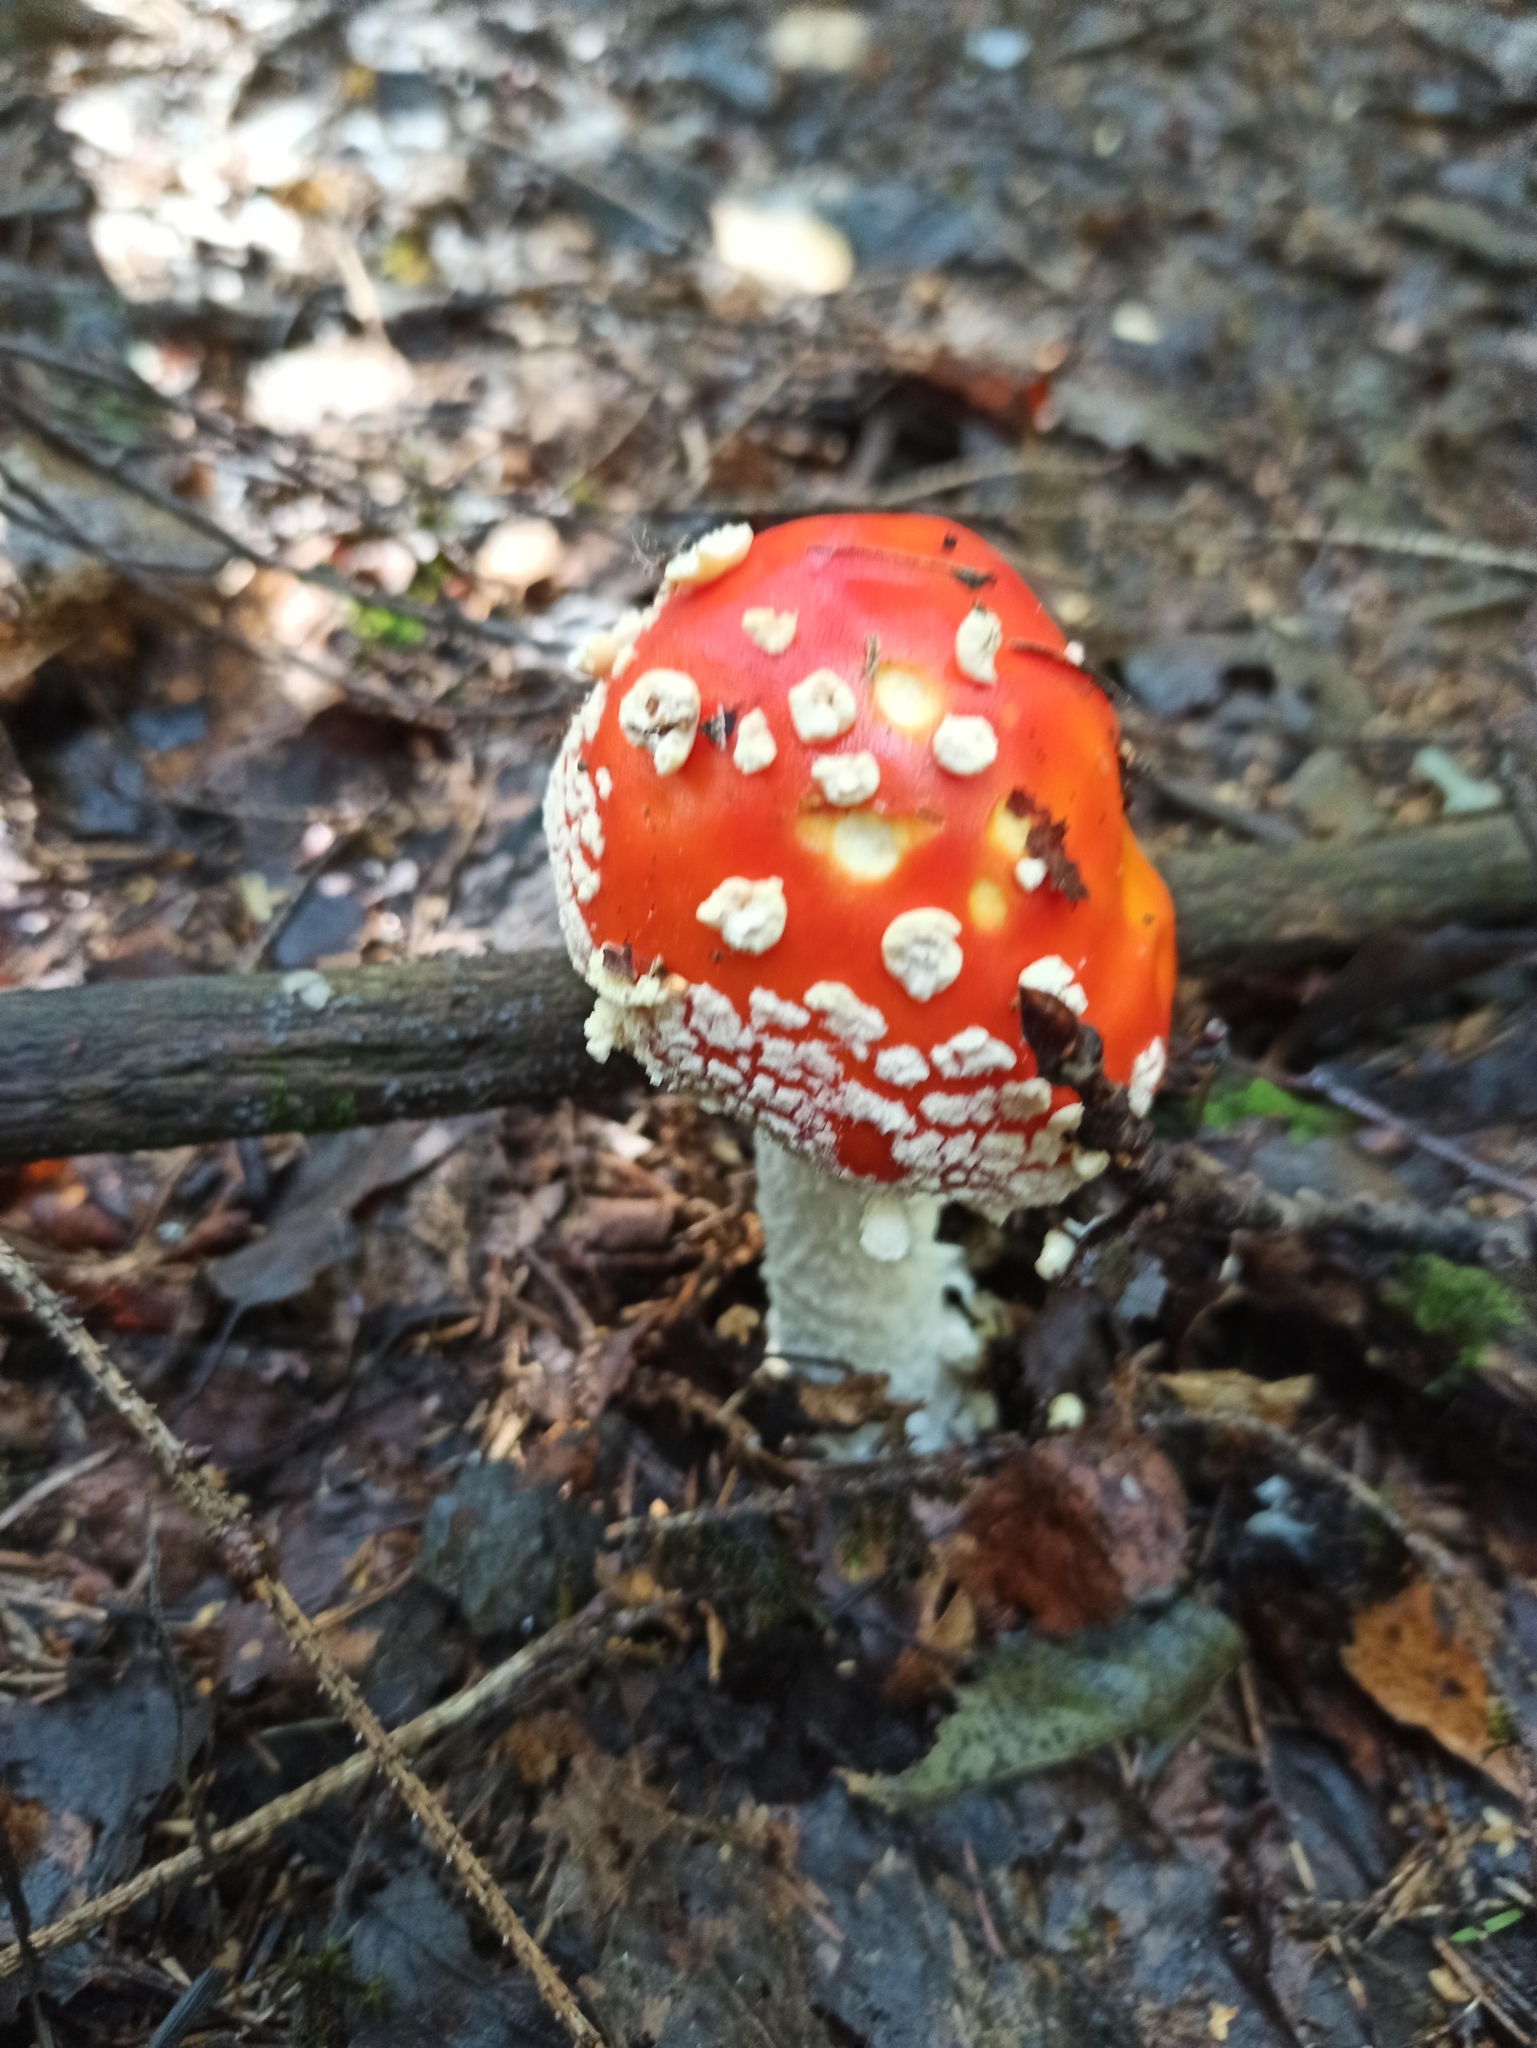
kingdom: Fungi
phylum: Basidiomycota
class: Agaricomycetes
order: Agaricales
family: Amanitaceae
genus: Amanita
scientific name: Amanita muscaria
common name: Fly agaric
